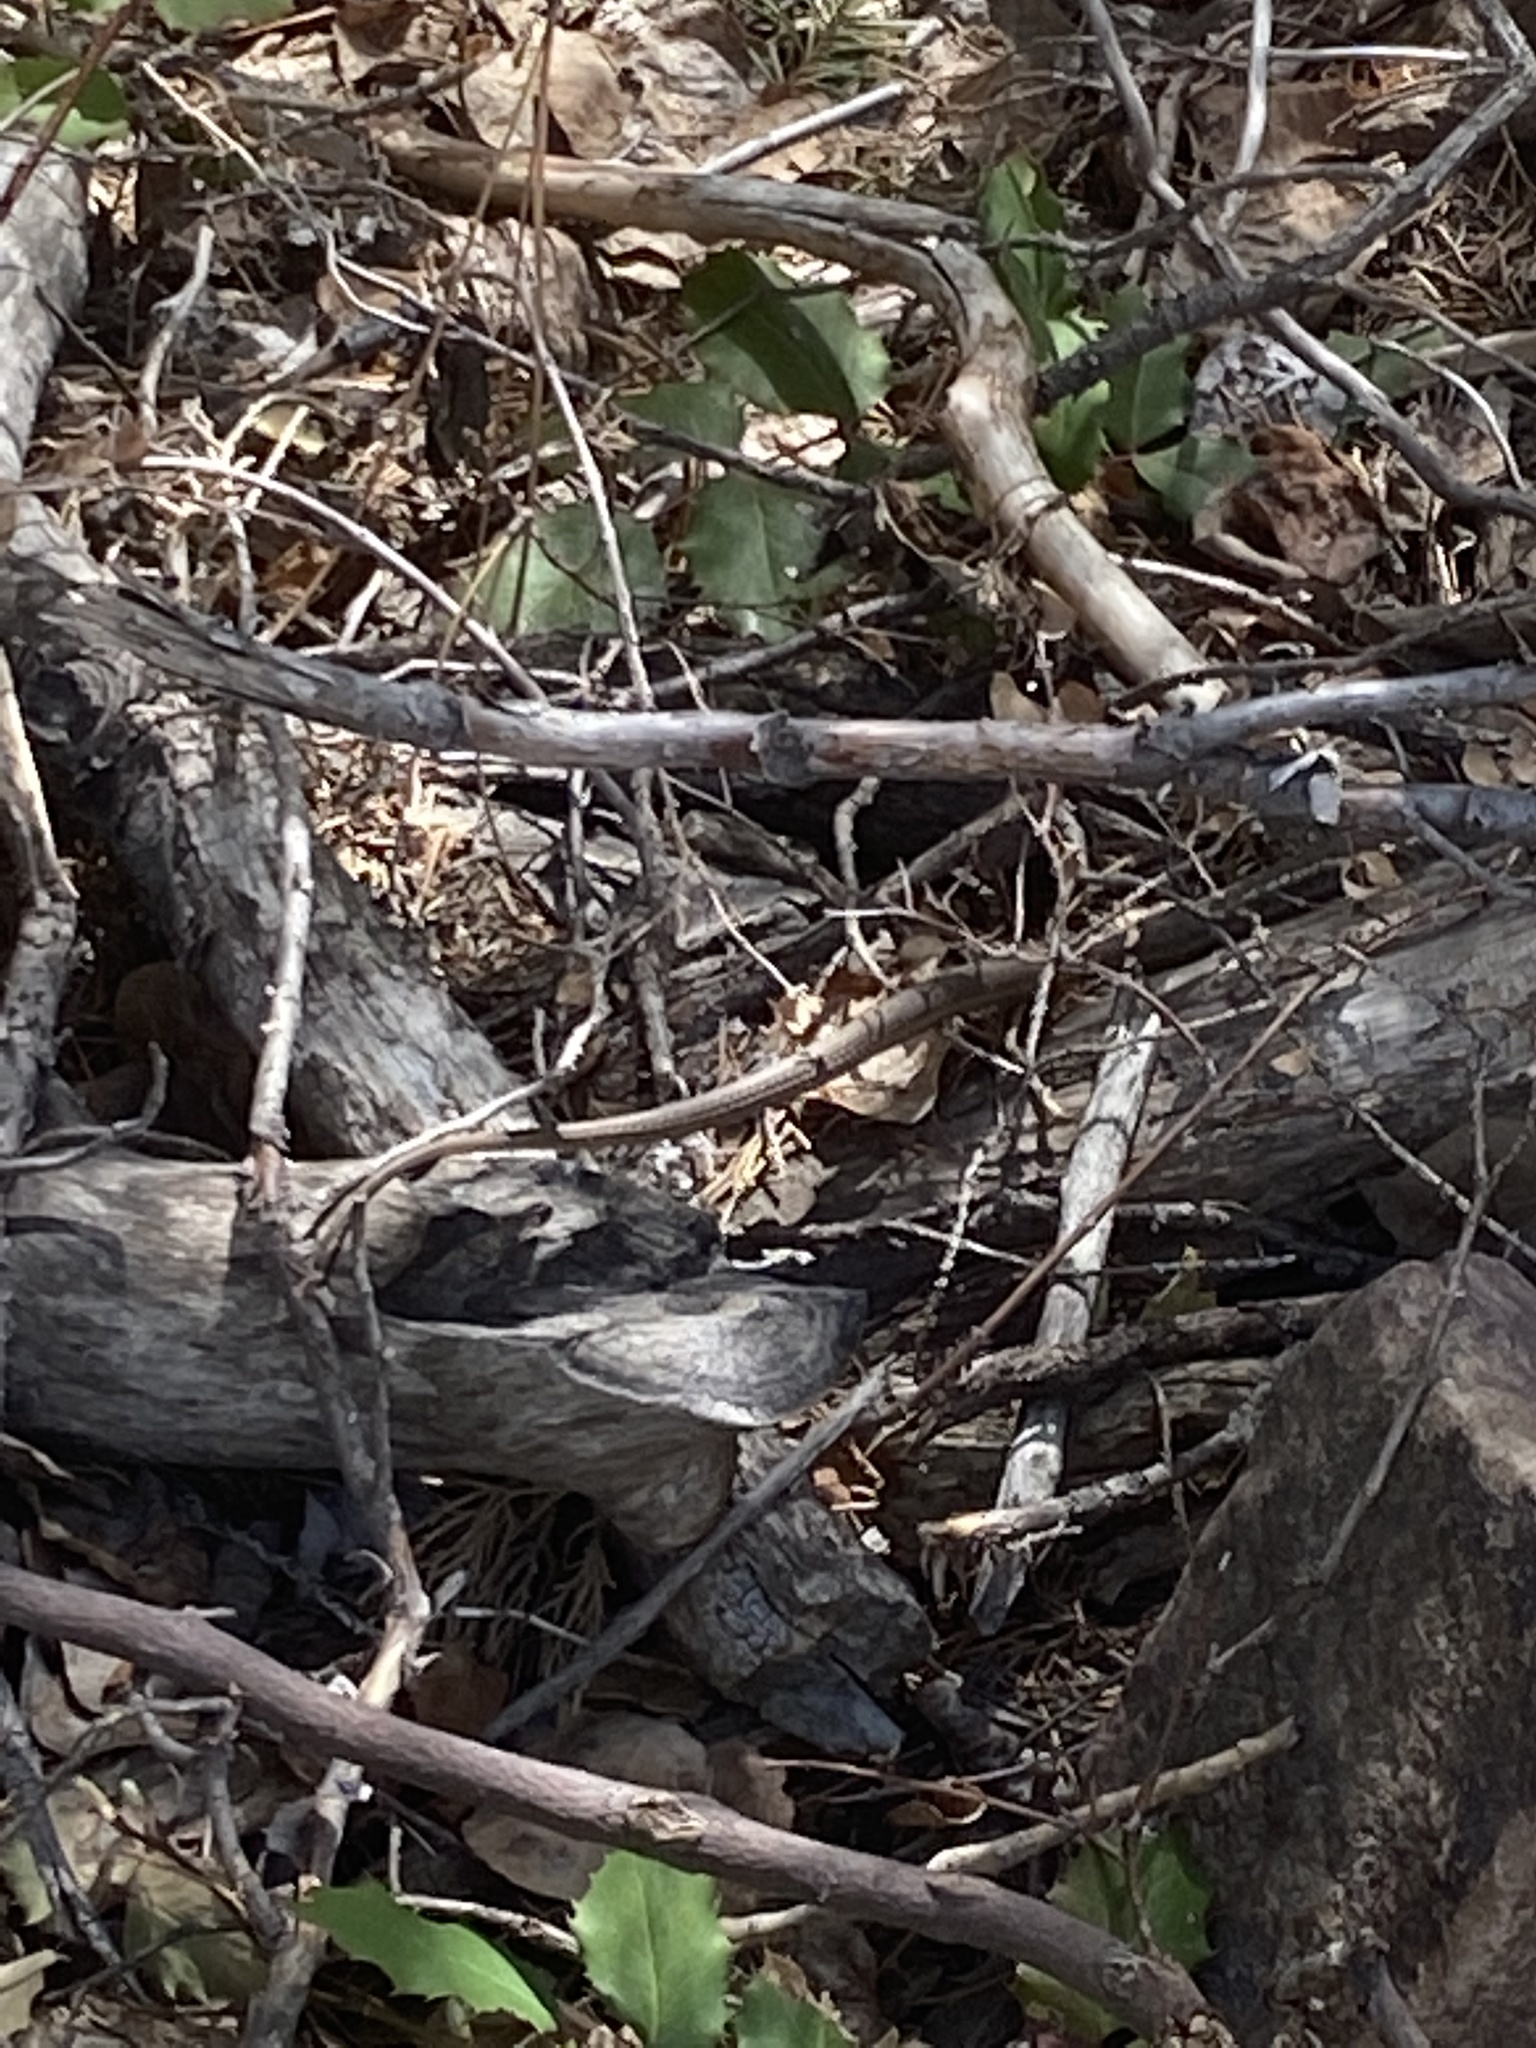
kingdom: Animalia
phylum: Chordata
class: Squamata
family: Colubridae
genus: Thamnophis
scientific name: Thamnophis elegans
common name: Western terrestrial garter snake
